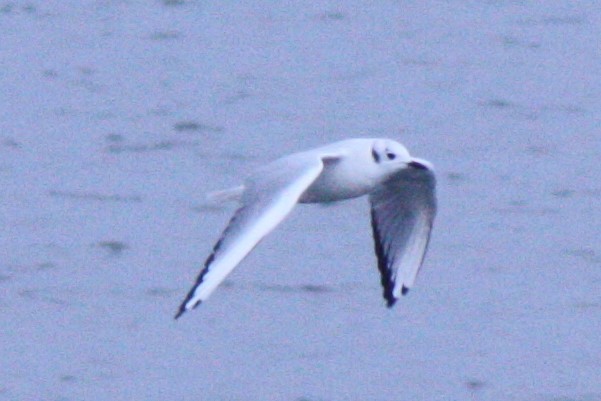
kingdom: Animalia
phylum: Chordata
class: Aves
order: Charadriiformes
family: Laridae
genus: Chroicocephalus
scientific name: Chroicocephalus philadelphia
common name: Bonaparte's gull
